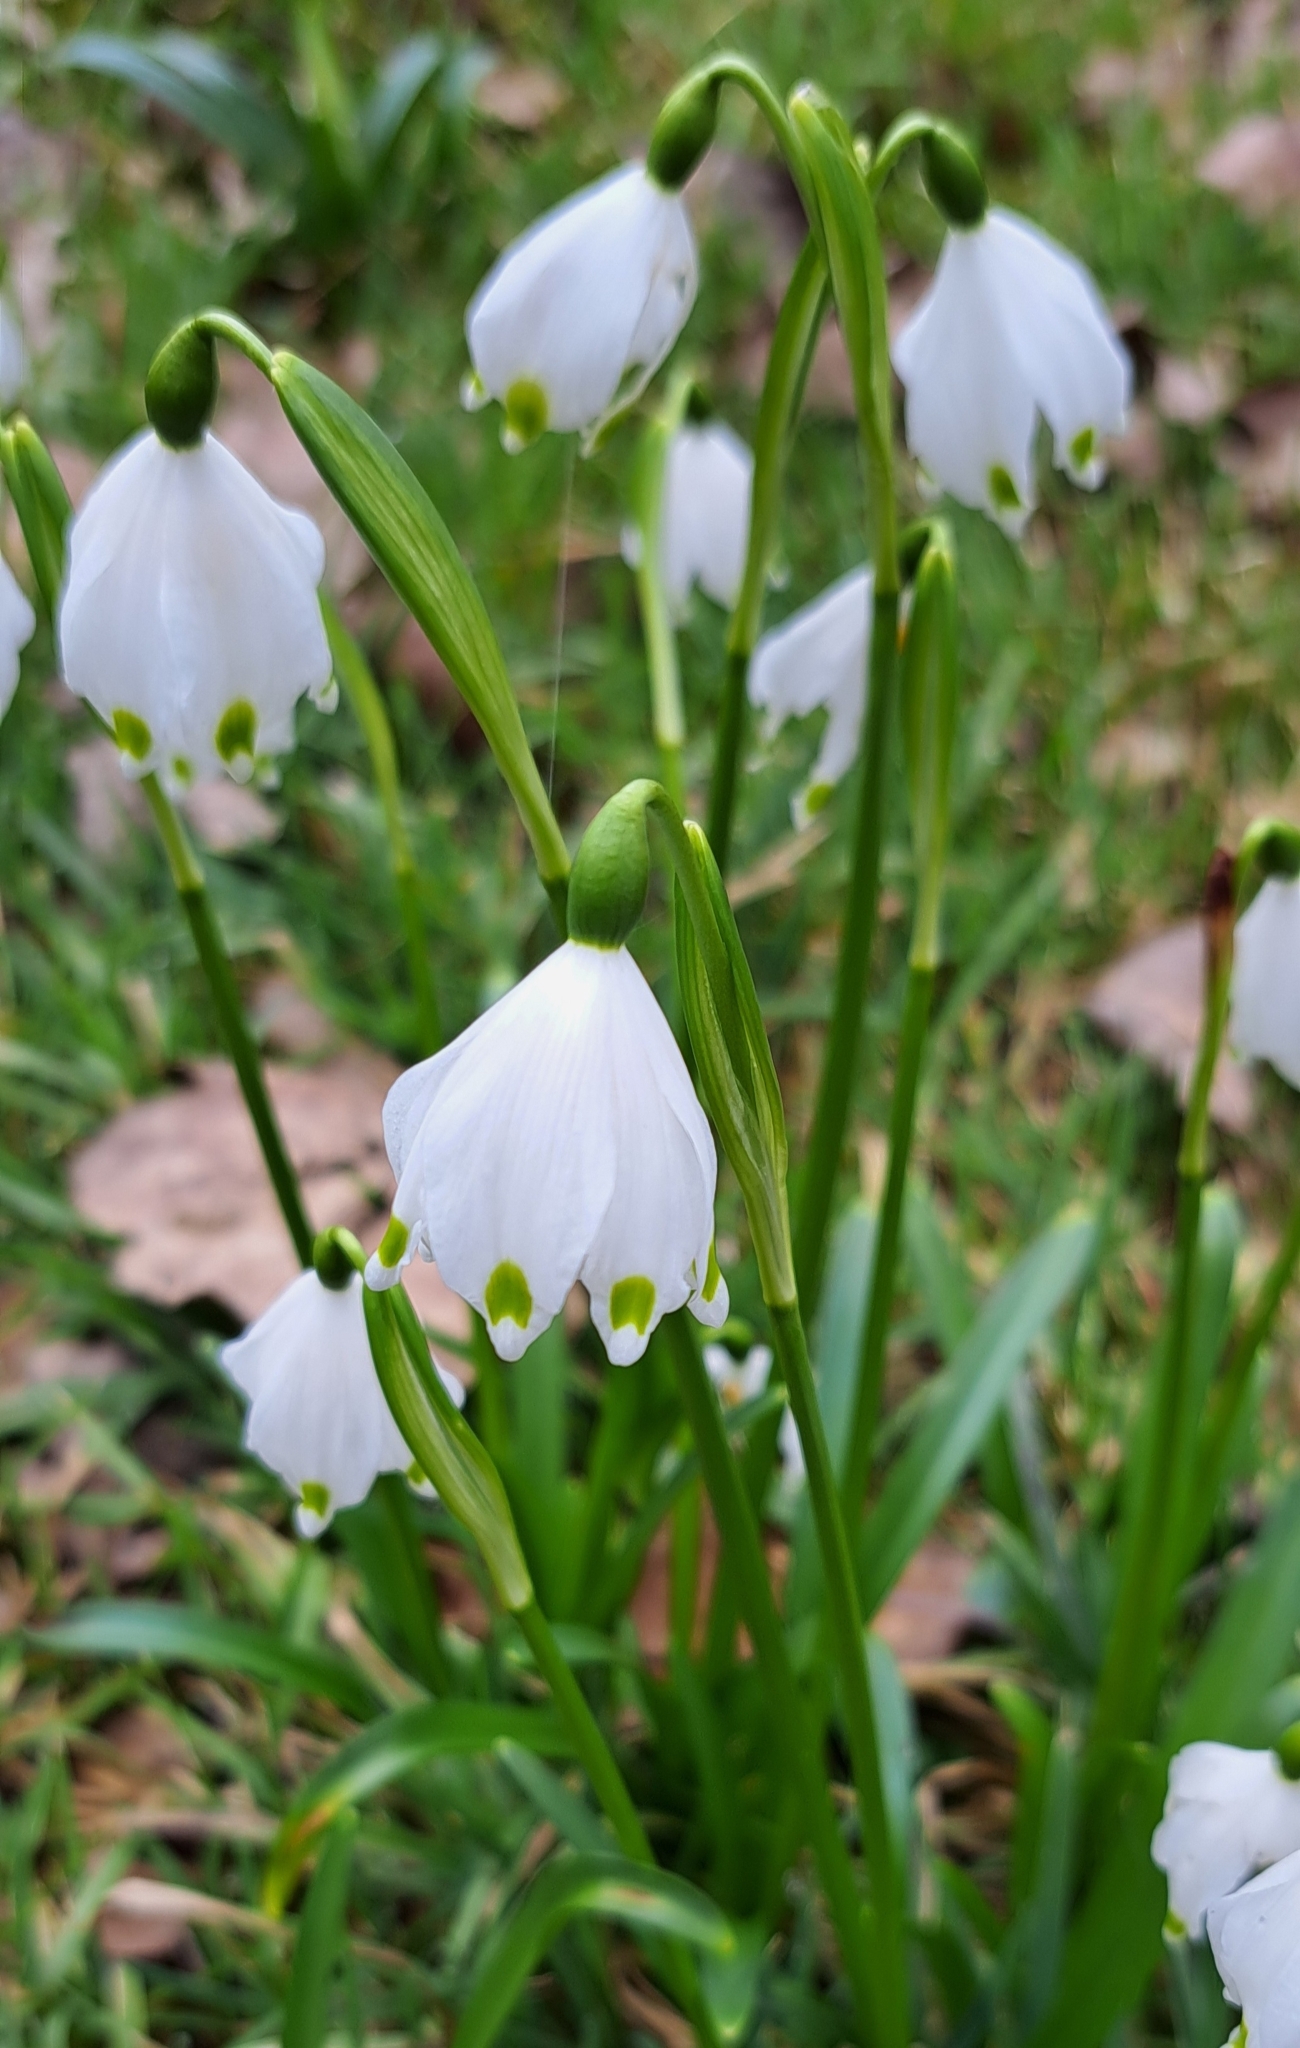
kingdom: Plantae
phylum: Tracheophyta
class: Liliopsida
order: Asparagales
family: Amaryllidaceae
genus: Leucojum
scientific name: Leucojum vernum
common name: Spring snowflake
